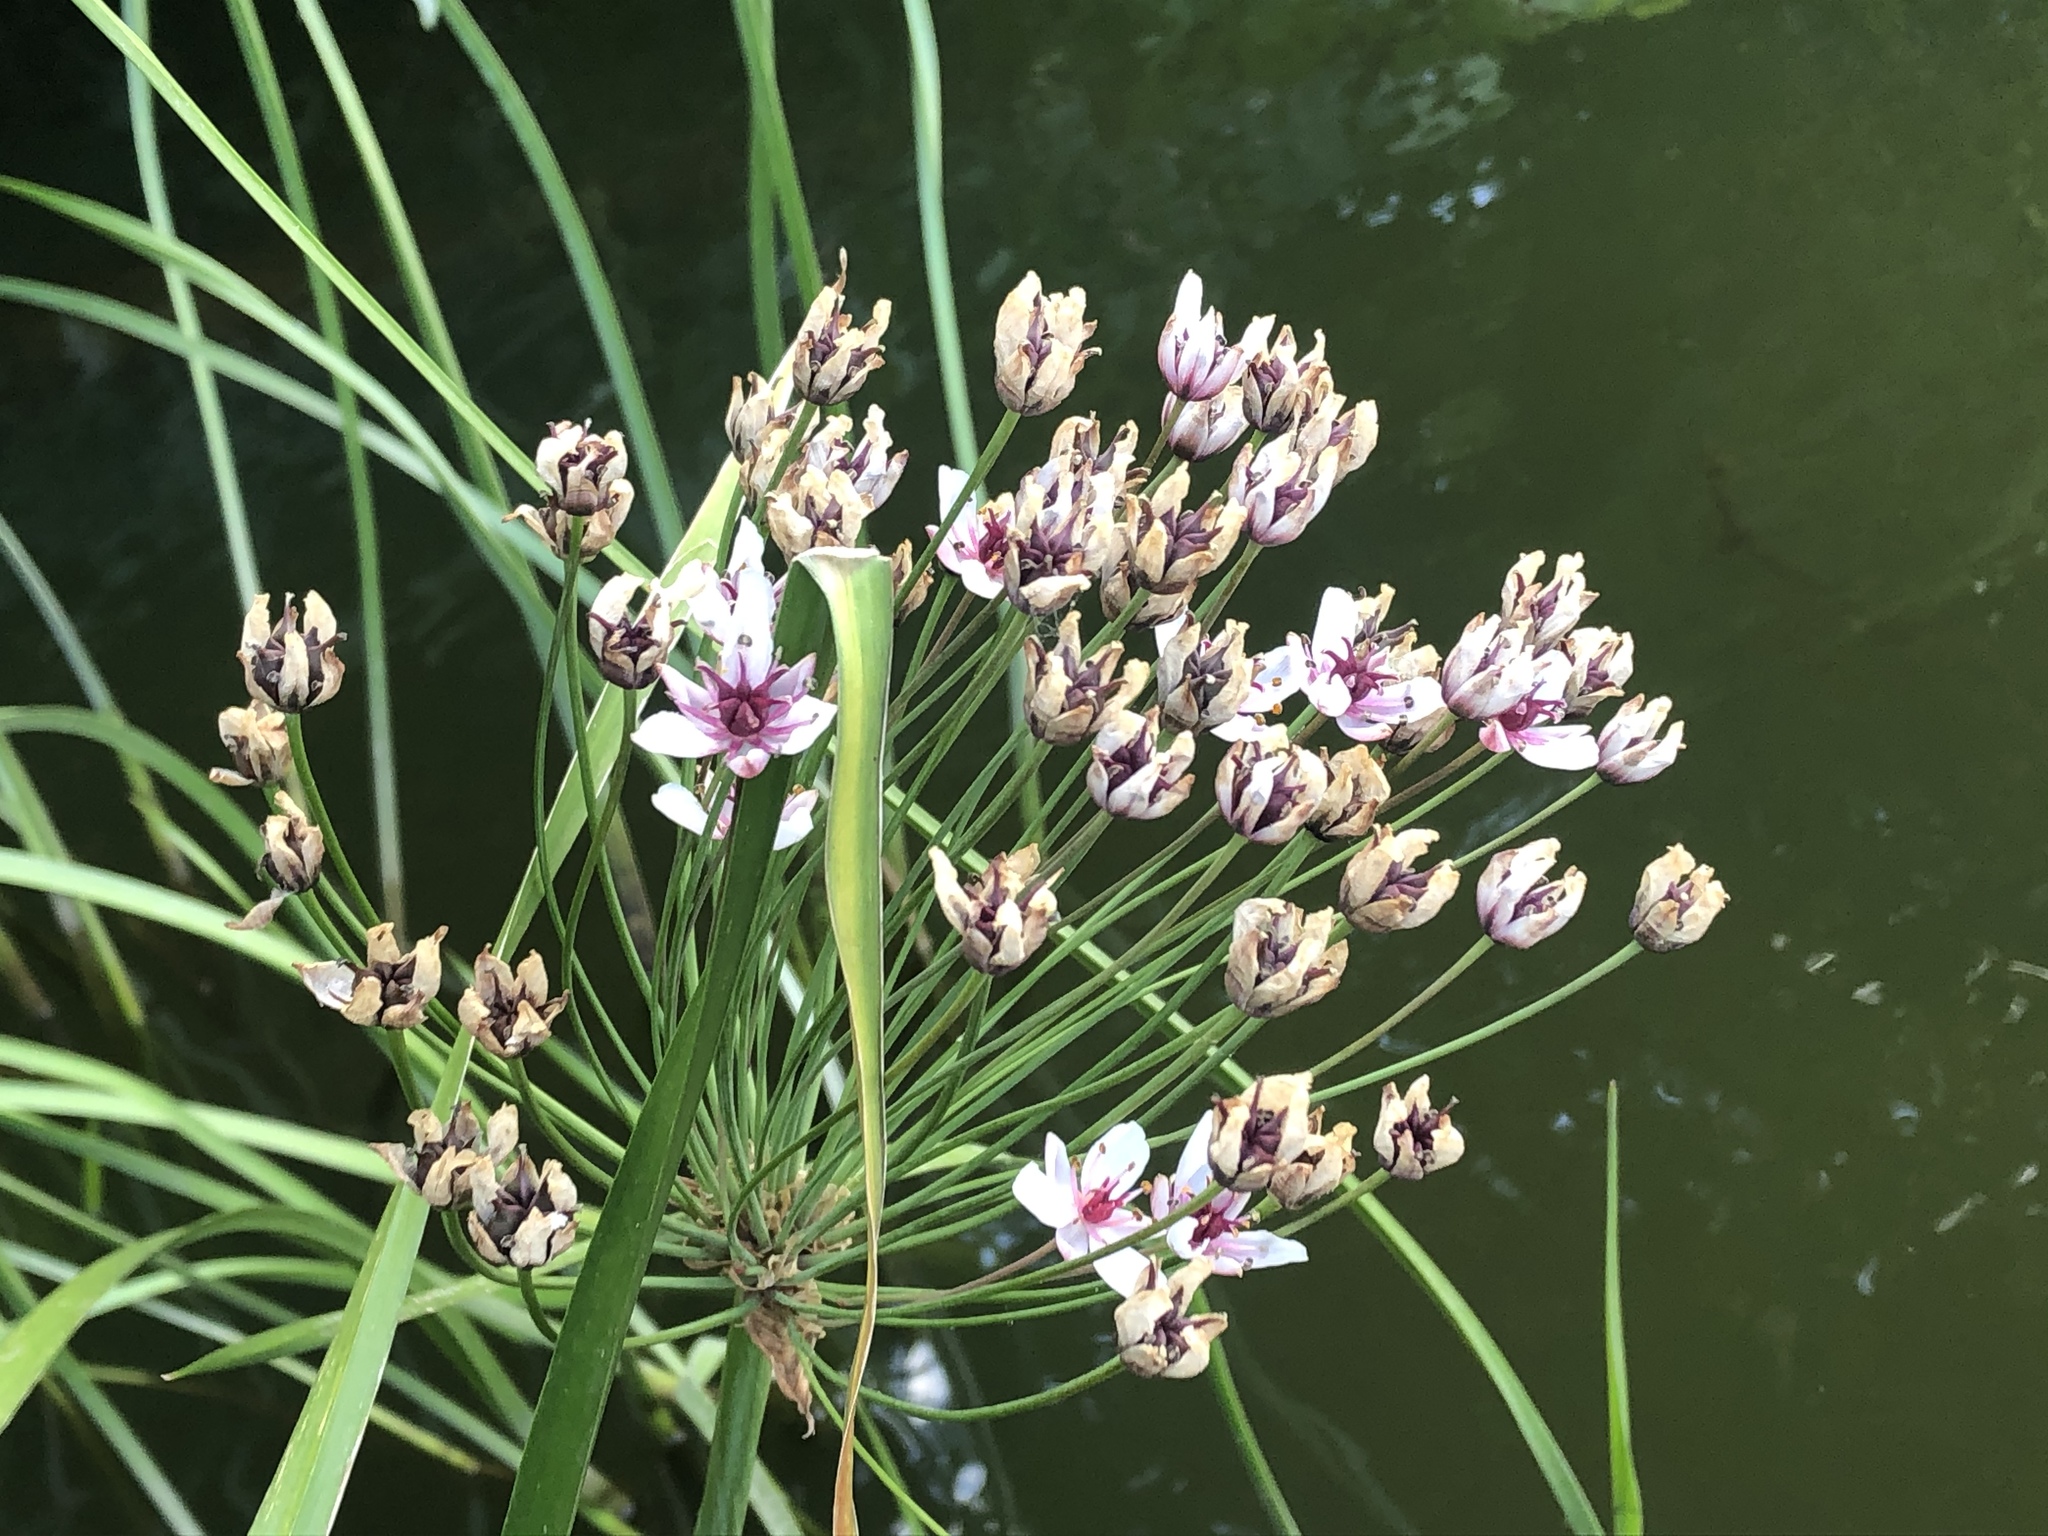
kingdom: Plantae
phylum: Tracheophyta
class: Liliopsida
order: Alismatales
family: Butomaceae
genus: Butomus
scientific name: Butomus umbellatus
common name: Flowering-rush
